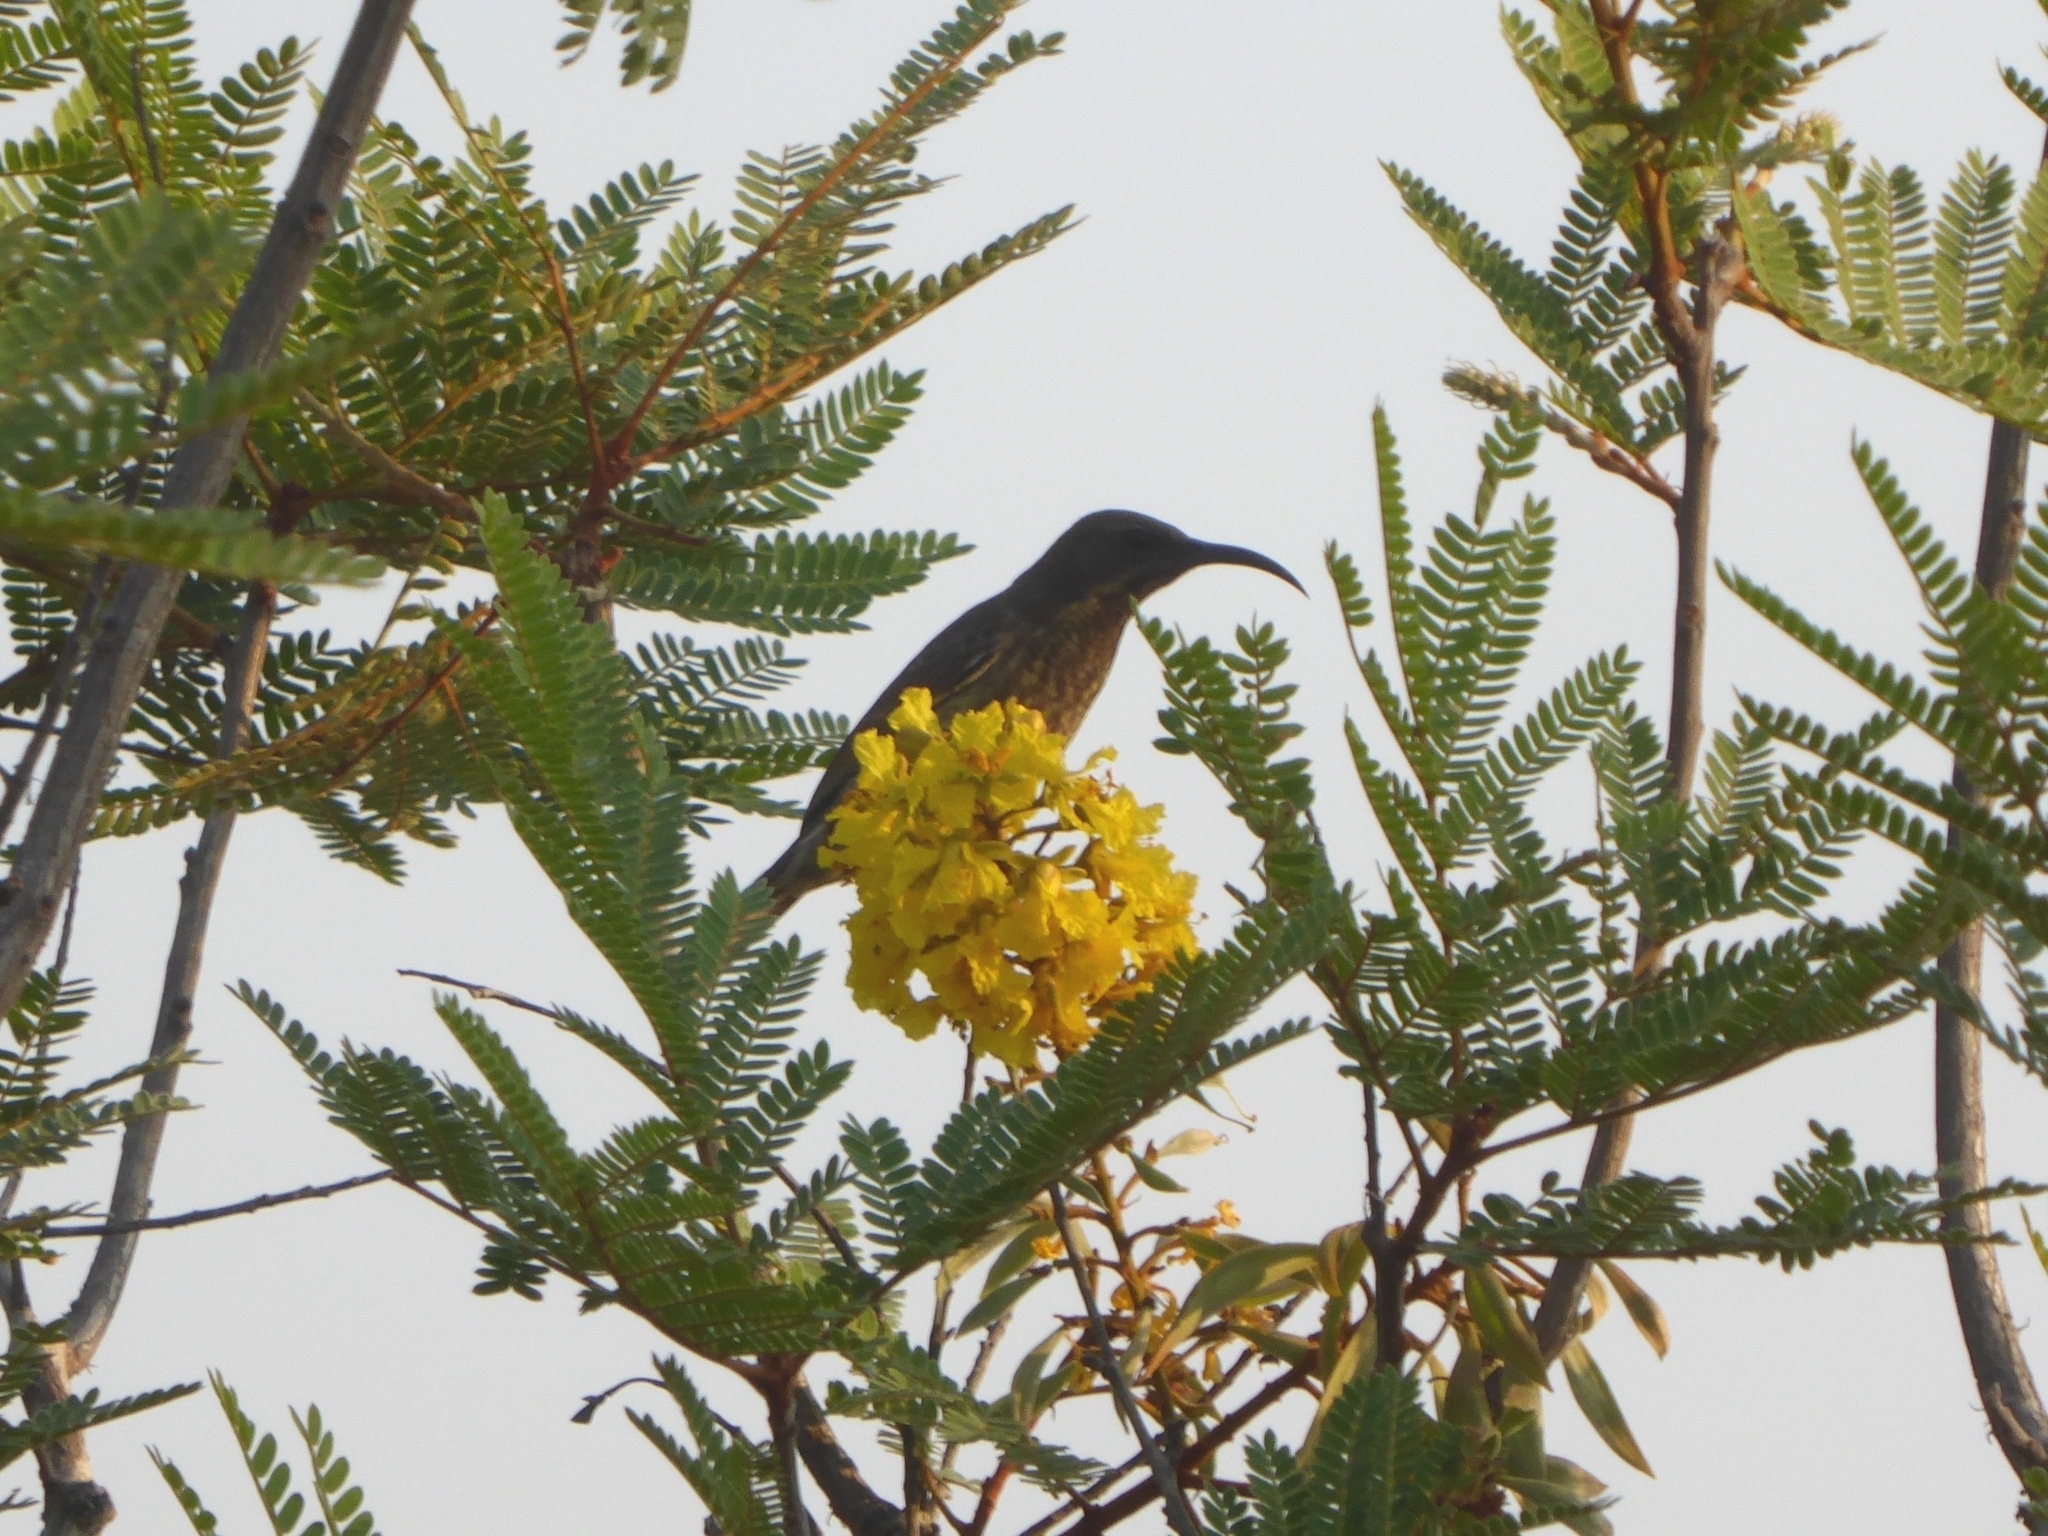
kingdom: Animalia
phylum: Chordata
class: Aves
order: Passeriformes
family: Nectariniidae
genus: Chalcomitra
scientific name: Chalcomitra senegalensis
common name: Scarlet-chested sunbird
